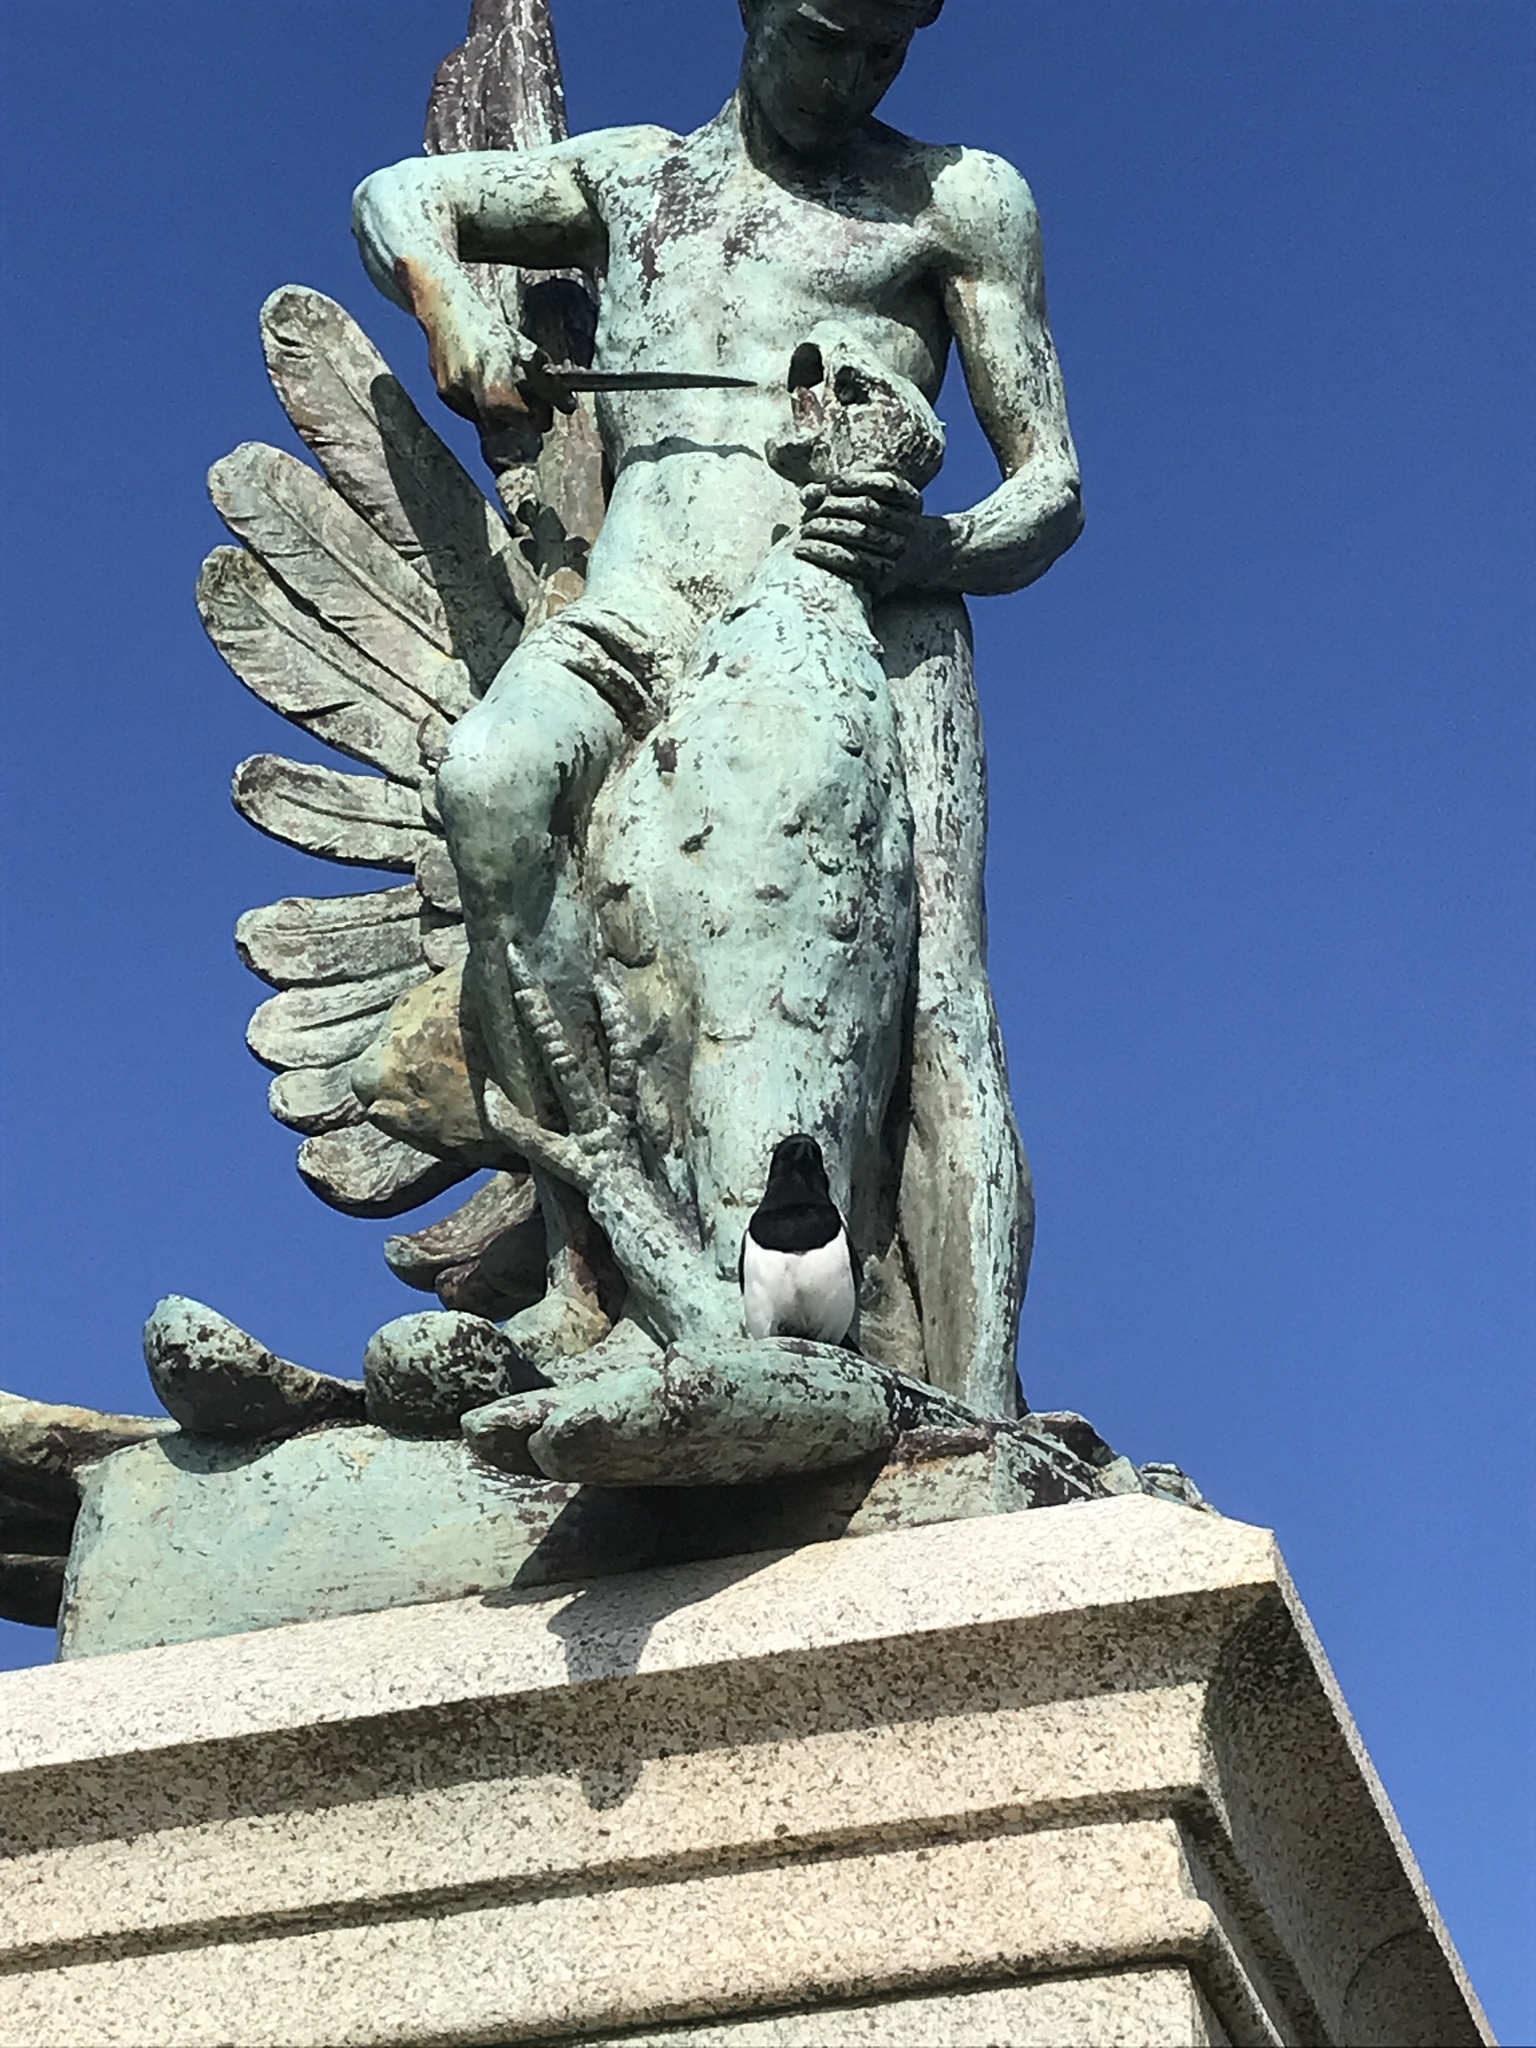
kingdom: Animalia
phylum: Chordata
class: Aves
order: Passeriformes
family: Corvidae
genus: Pica
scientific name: Pica pica
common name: Eurasian magpie
